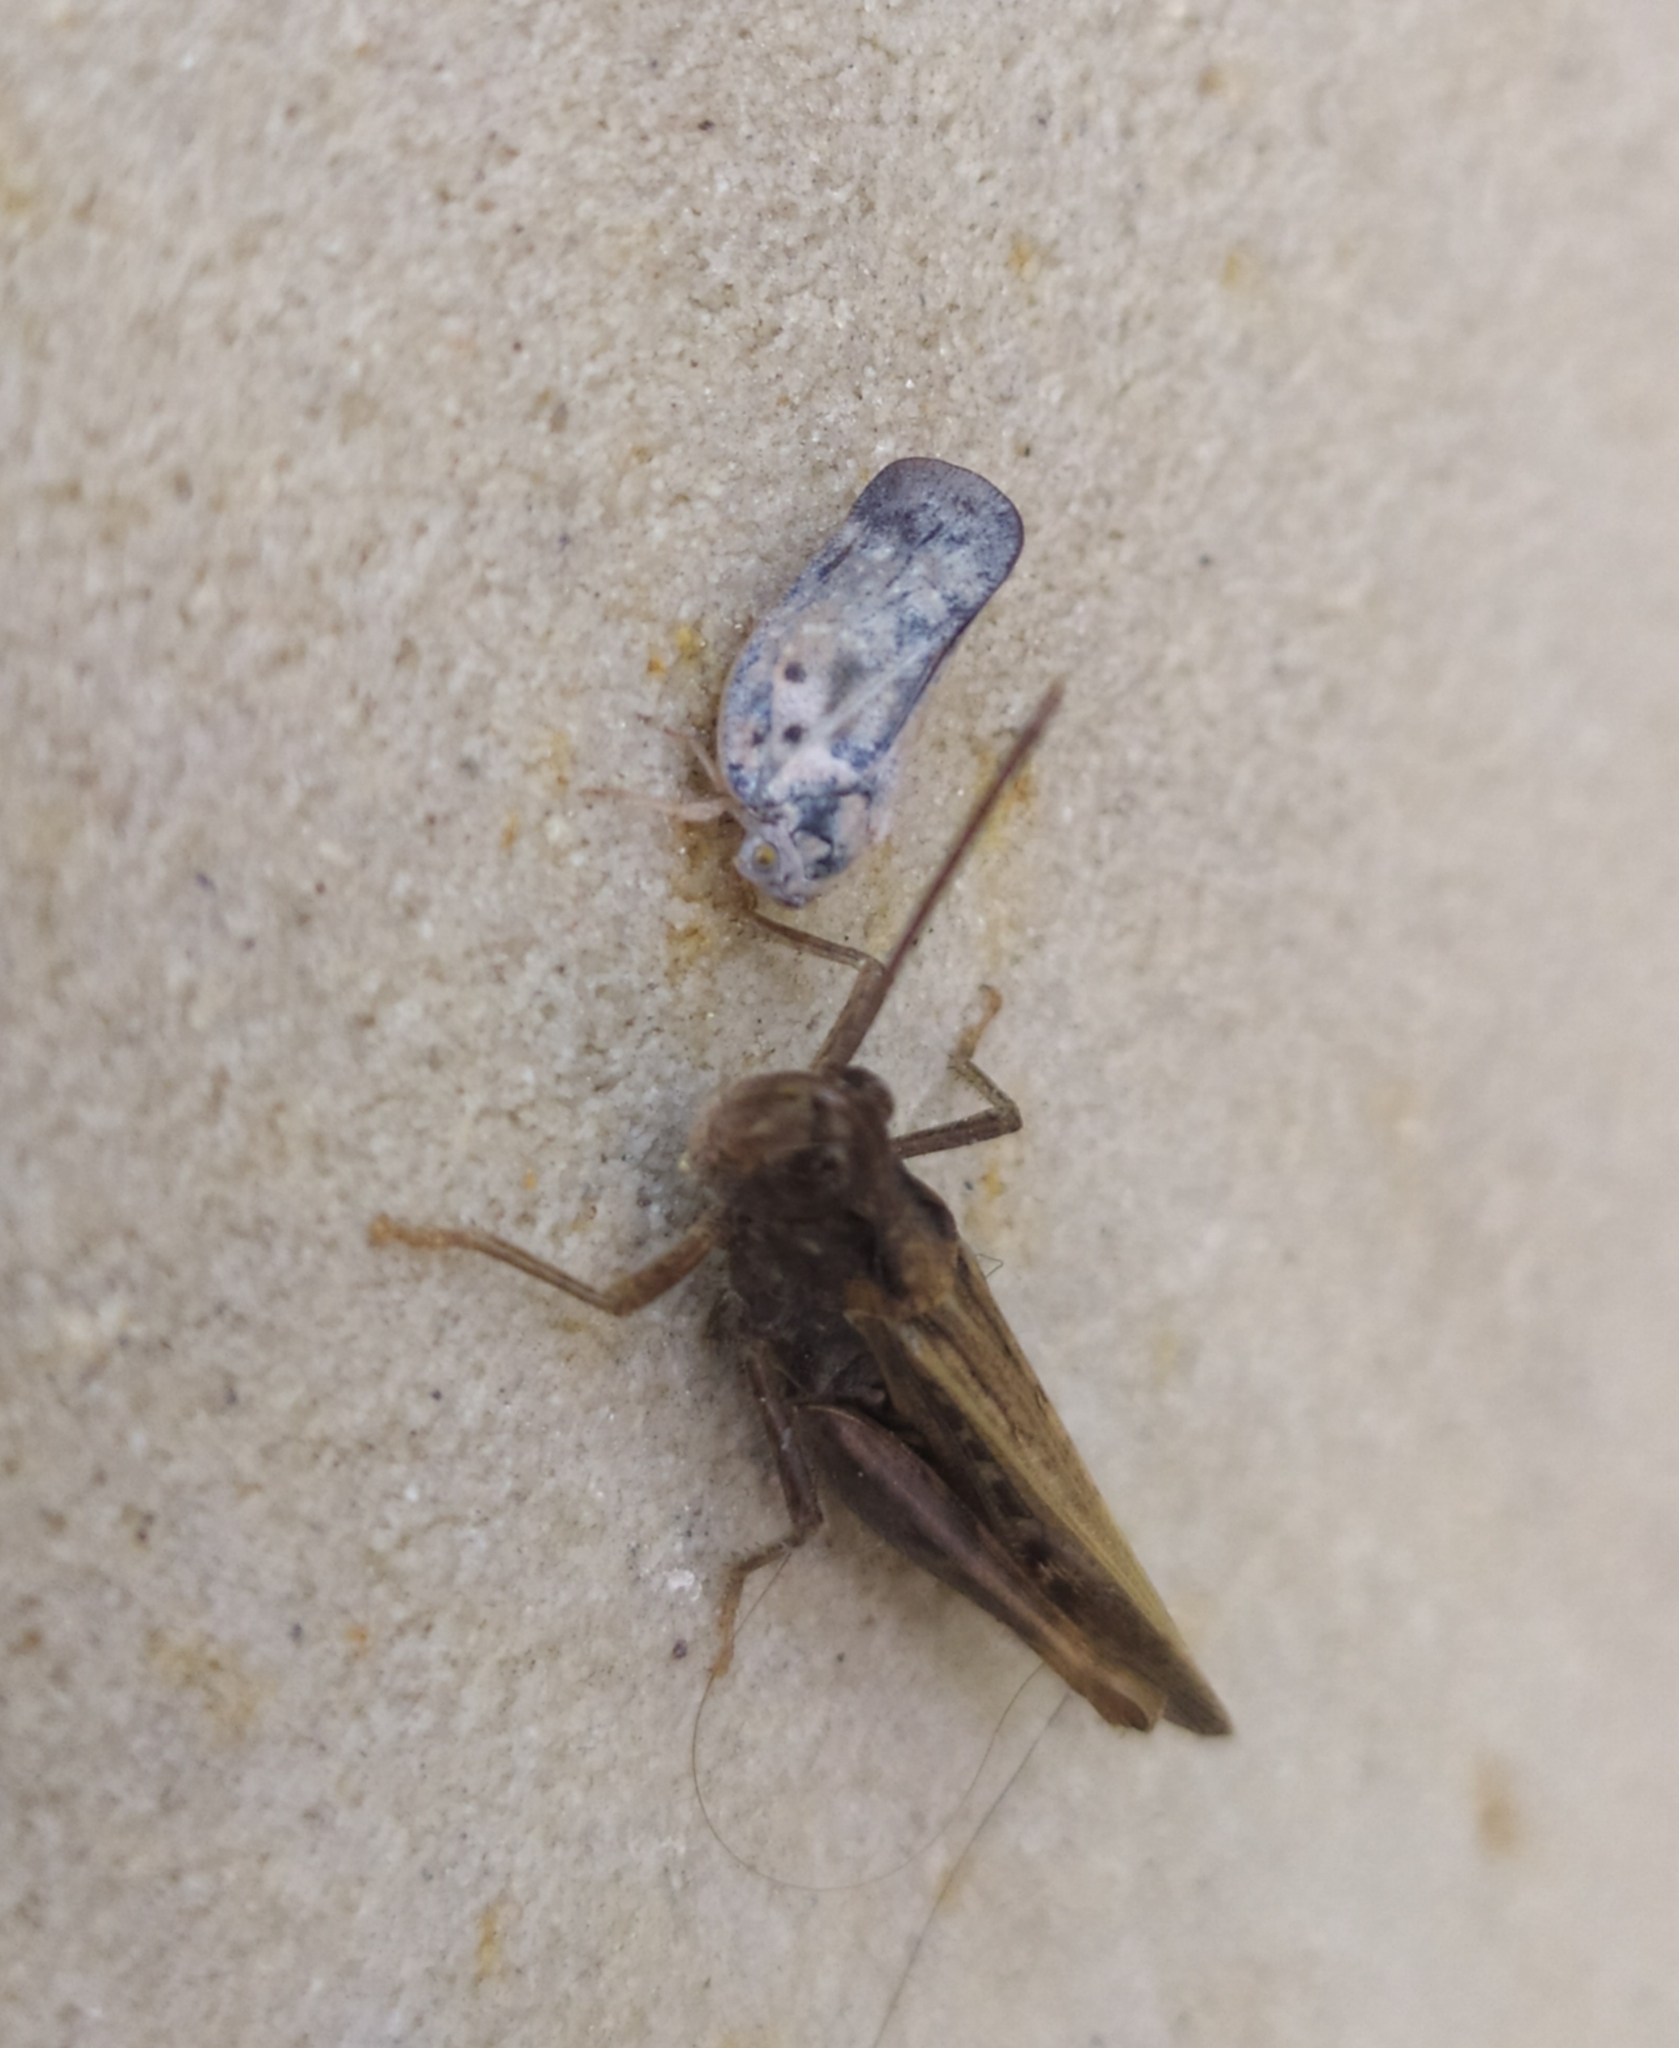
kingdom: Animalia
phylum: Arthropoda
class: Insecta
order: Hemiptera
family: Flatidae
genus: Metcalfa
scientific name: Metcalfa pruinosa
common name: Citrus flatid planthopper
